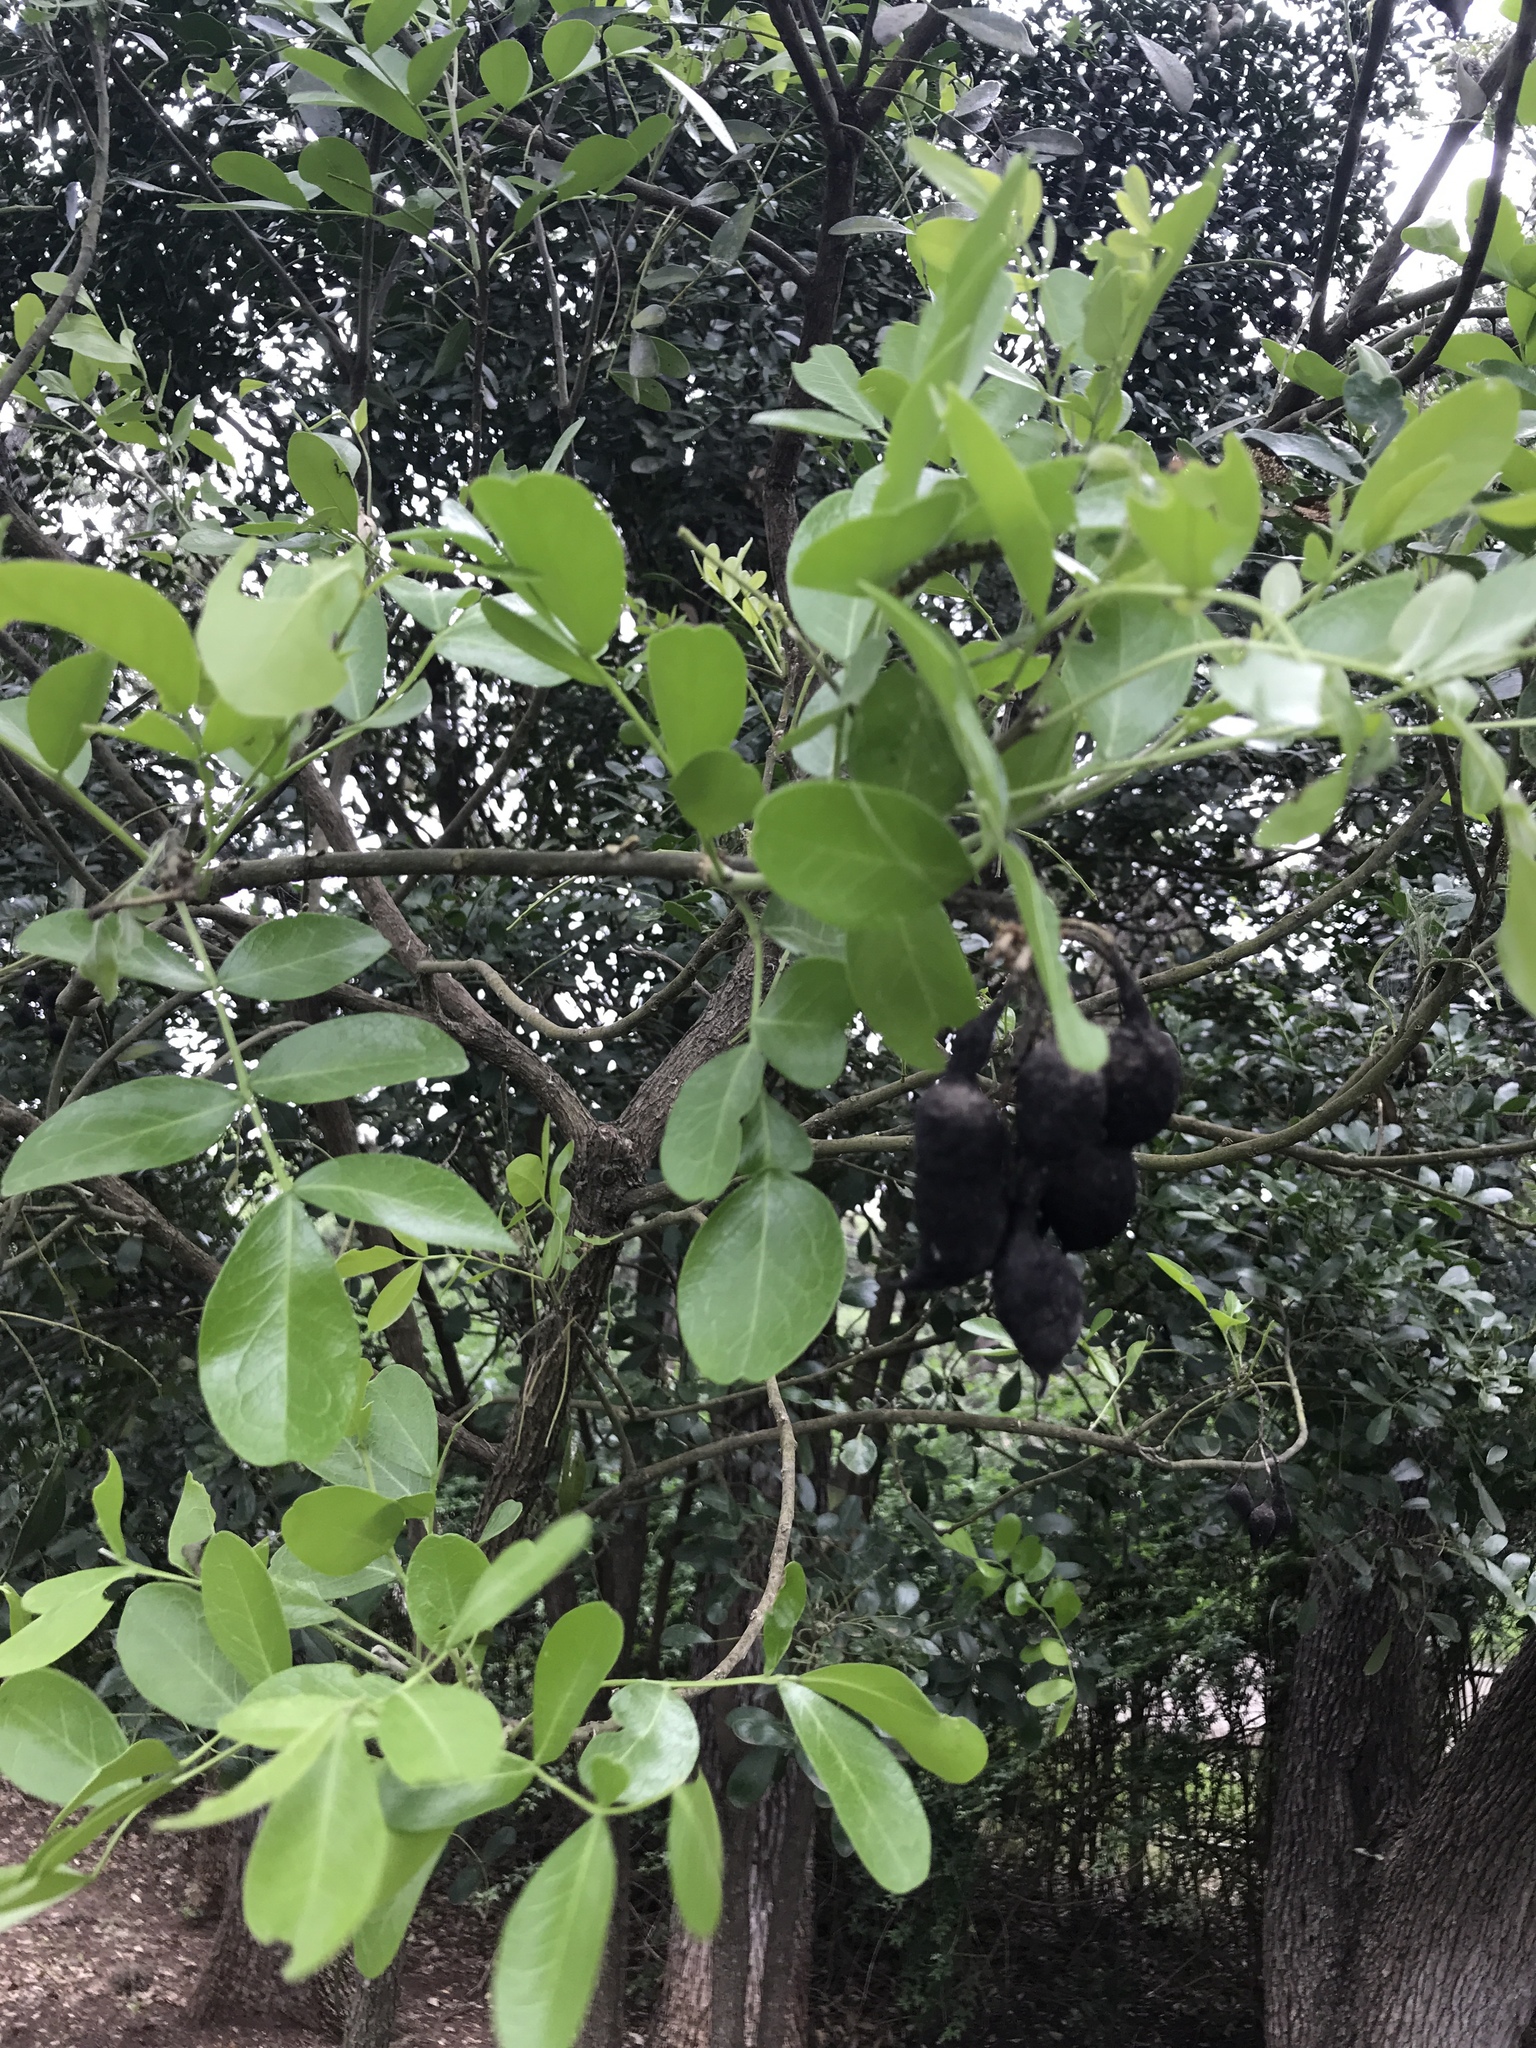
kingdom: Plantae
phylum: Tracheophyta
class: Magnoliopsida
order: Fabales
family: Fabaceae
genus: Dermatophyllum
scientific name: Dermatophyllum secundiflorum
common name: Texas-mountain-laurel
